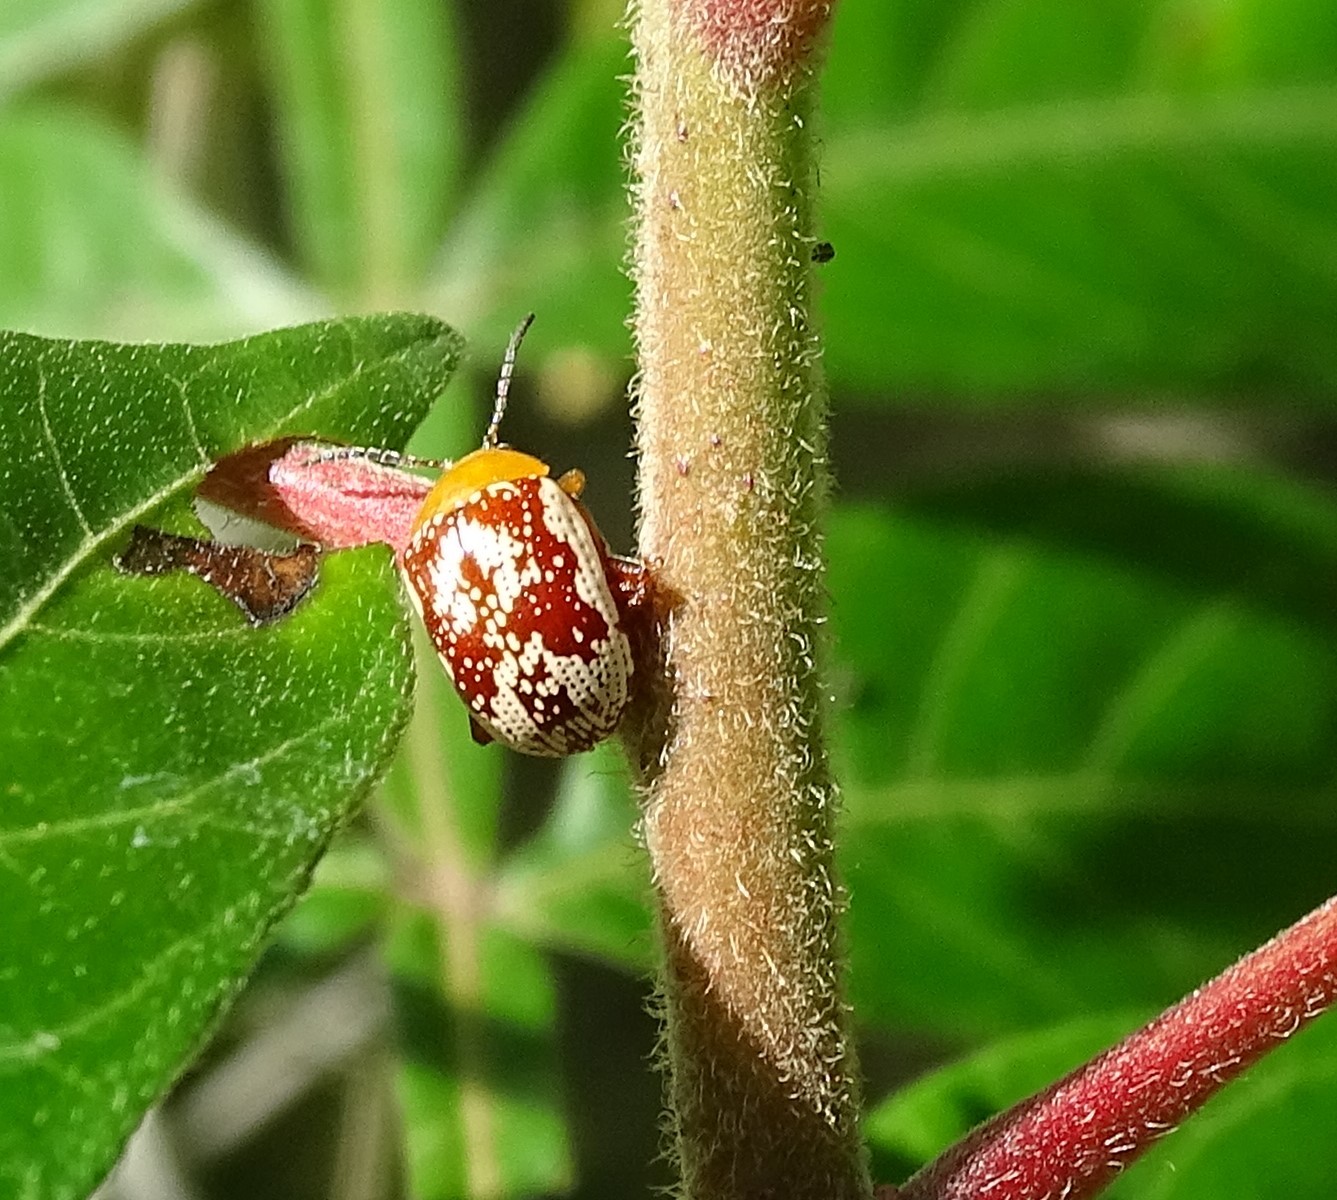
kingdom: Animalia
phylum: Arthropoda
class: Insecta
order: Coleoptera
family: Chrysomelidae
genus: Blepharida
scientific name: Blepharida rhois
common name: Sumac flea beetle
